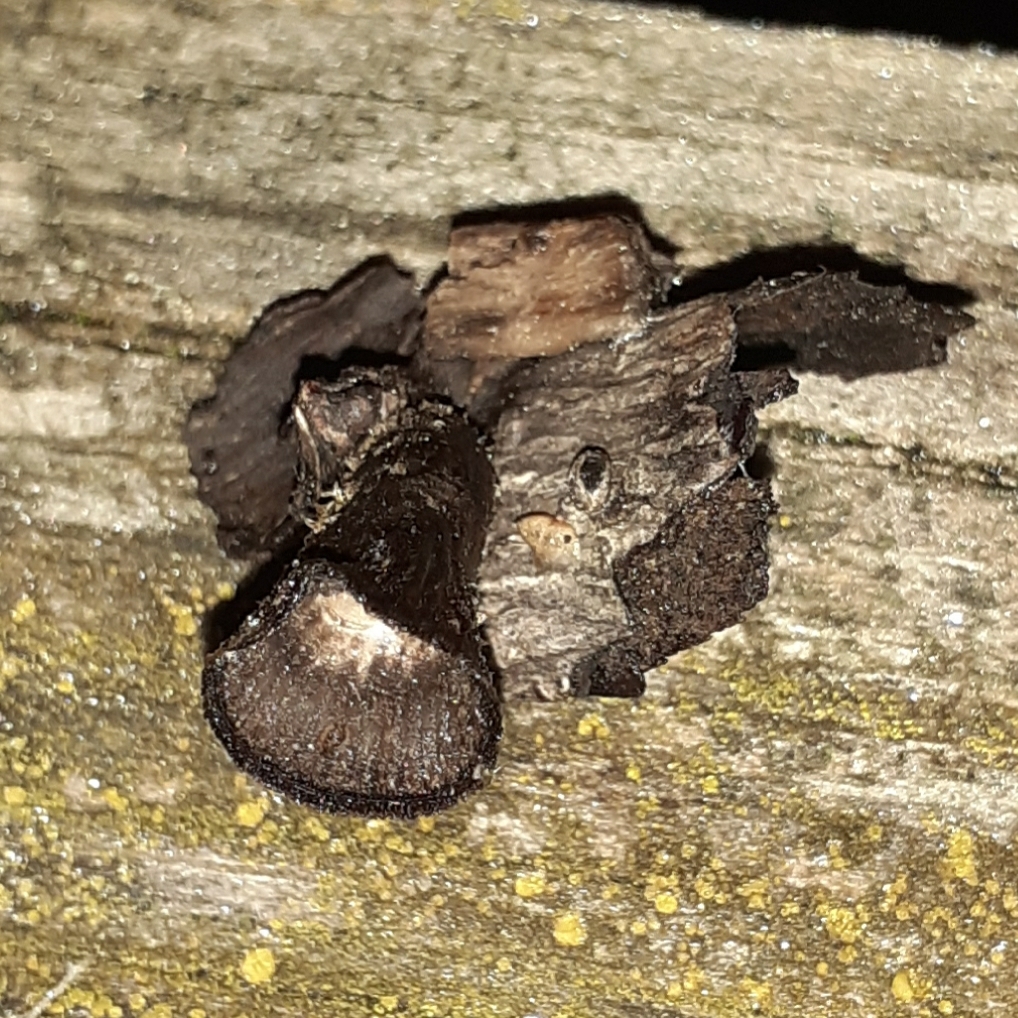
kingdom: Fungi
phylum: Basidiomycota
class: Agaricomycetes
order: Agaricales
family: Agaricaceae
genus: Cyathus
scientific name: Cyathus striatus
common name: Fluted bird's nest
